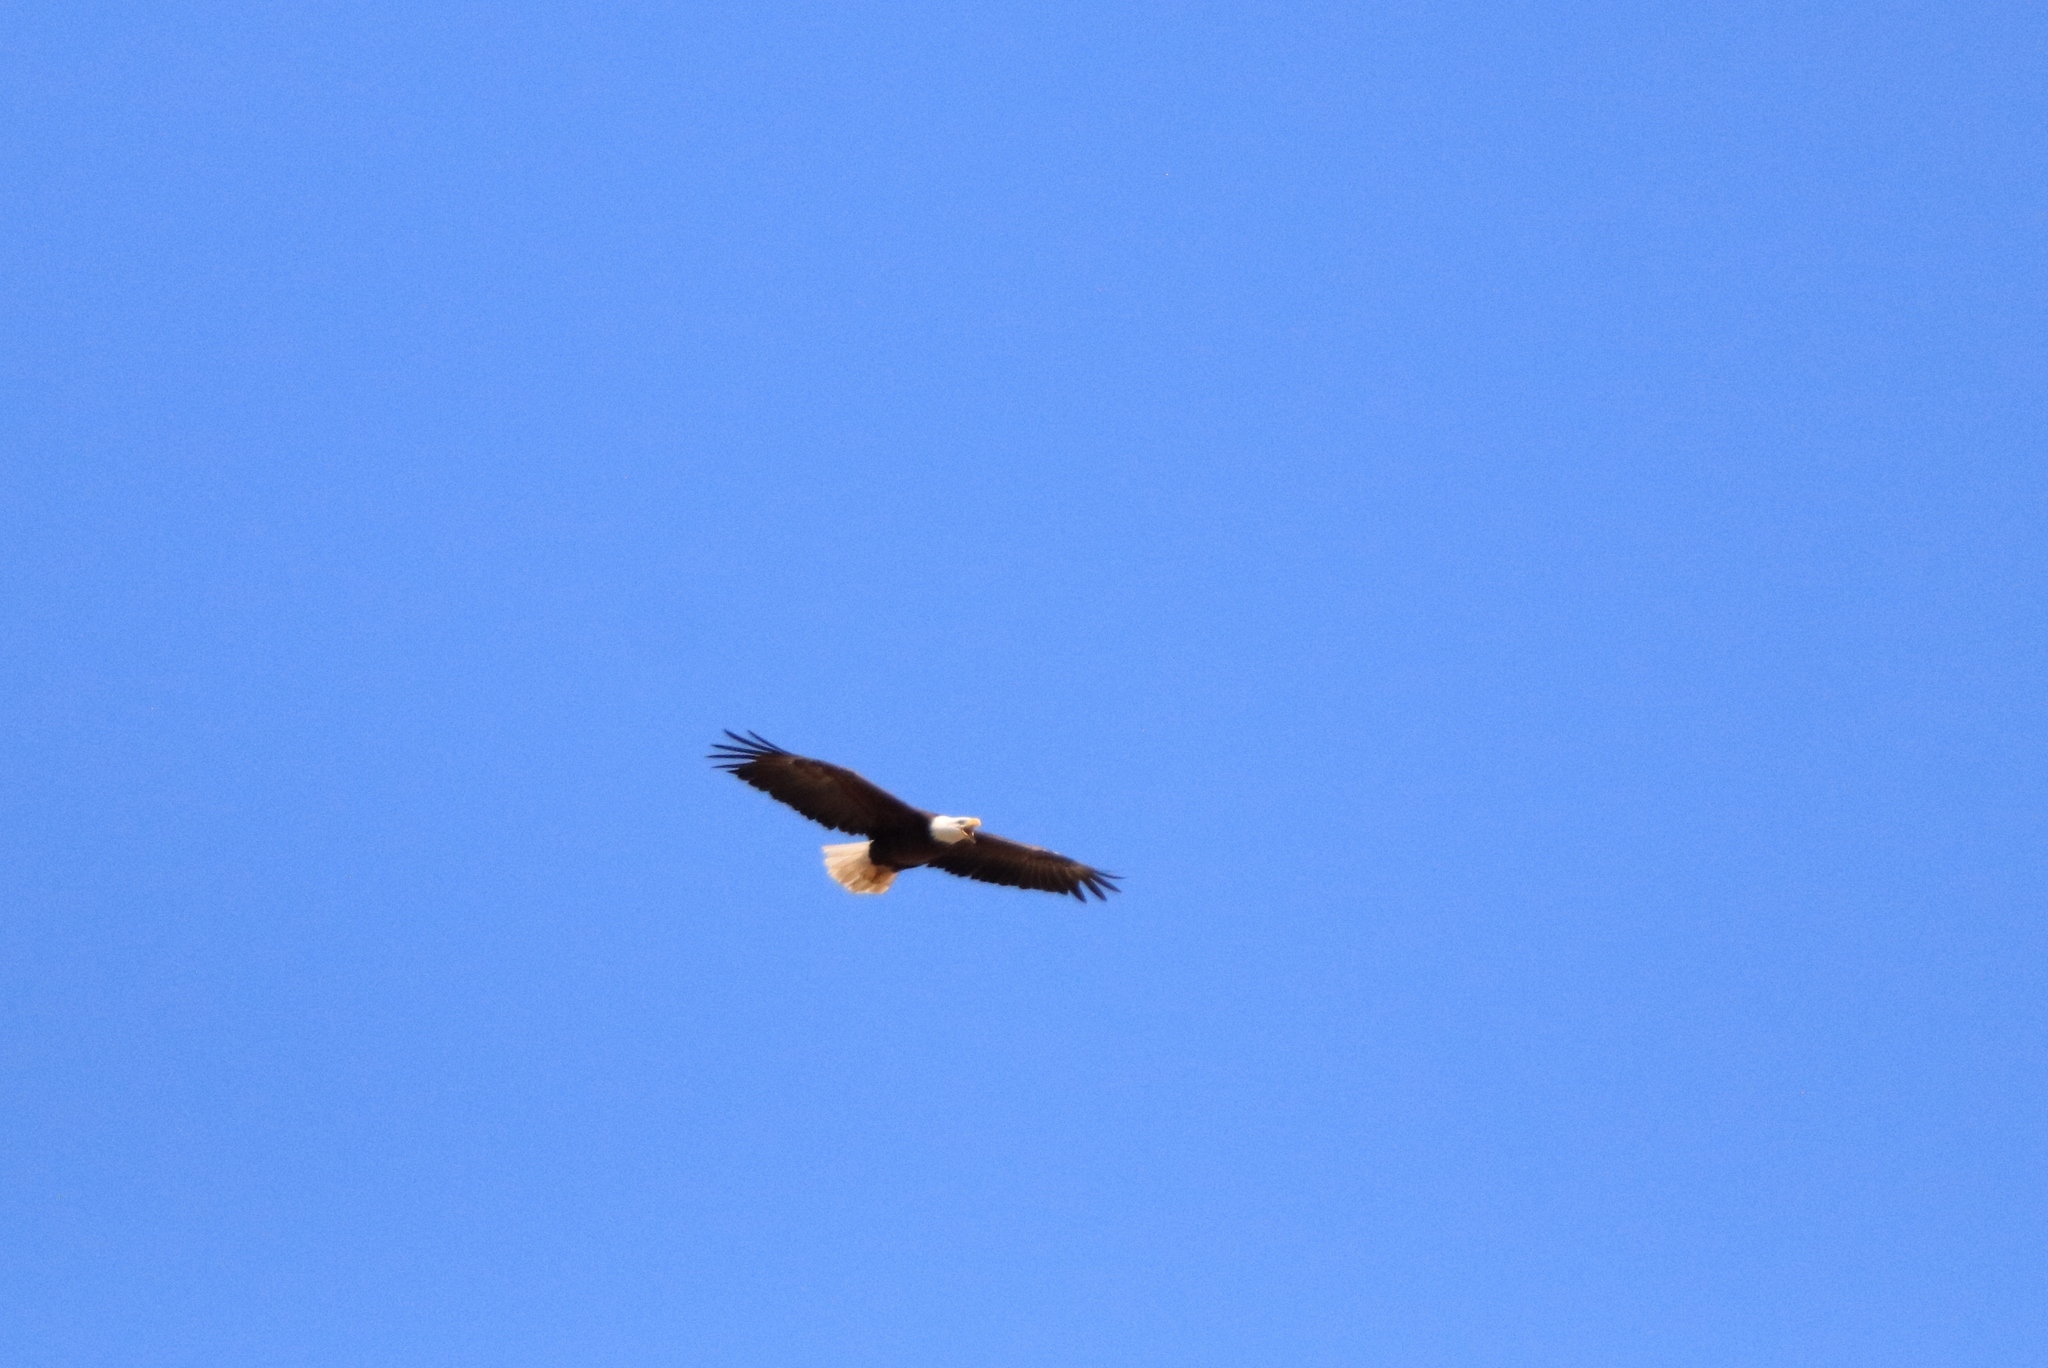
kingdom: Animalia
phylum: Chordata
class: Aves
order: Accipitriformes
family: Accipitridae
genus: Haliaeetus
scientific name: Haliaeetus leucocephalus
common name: Bald eagle
